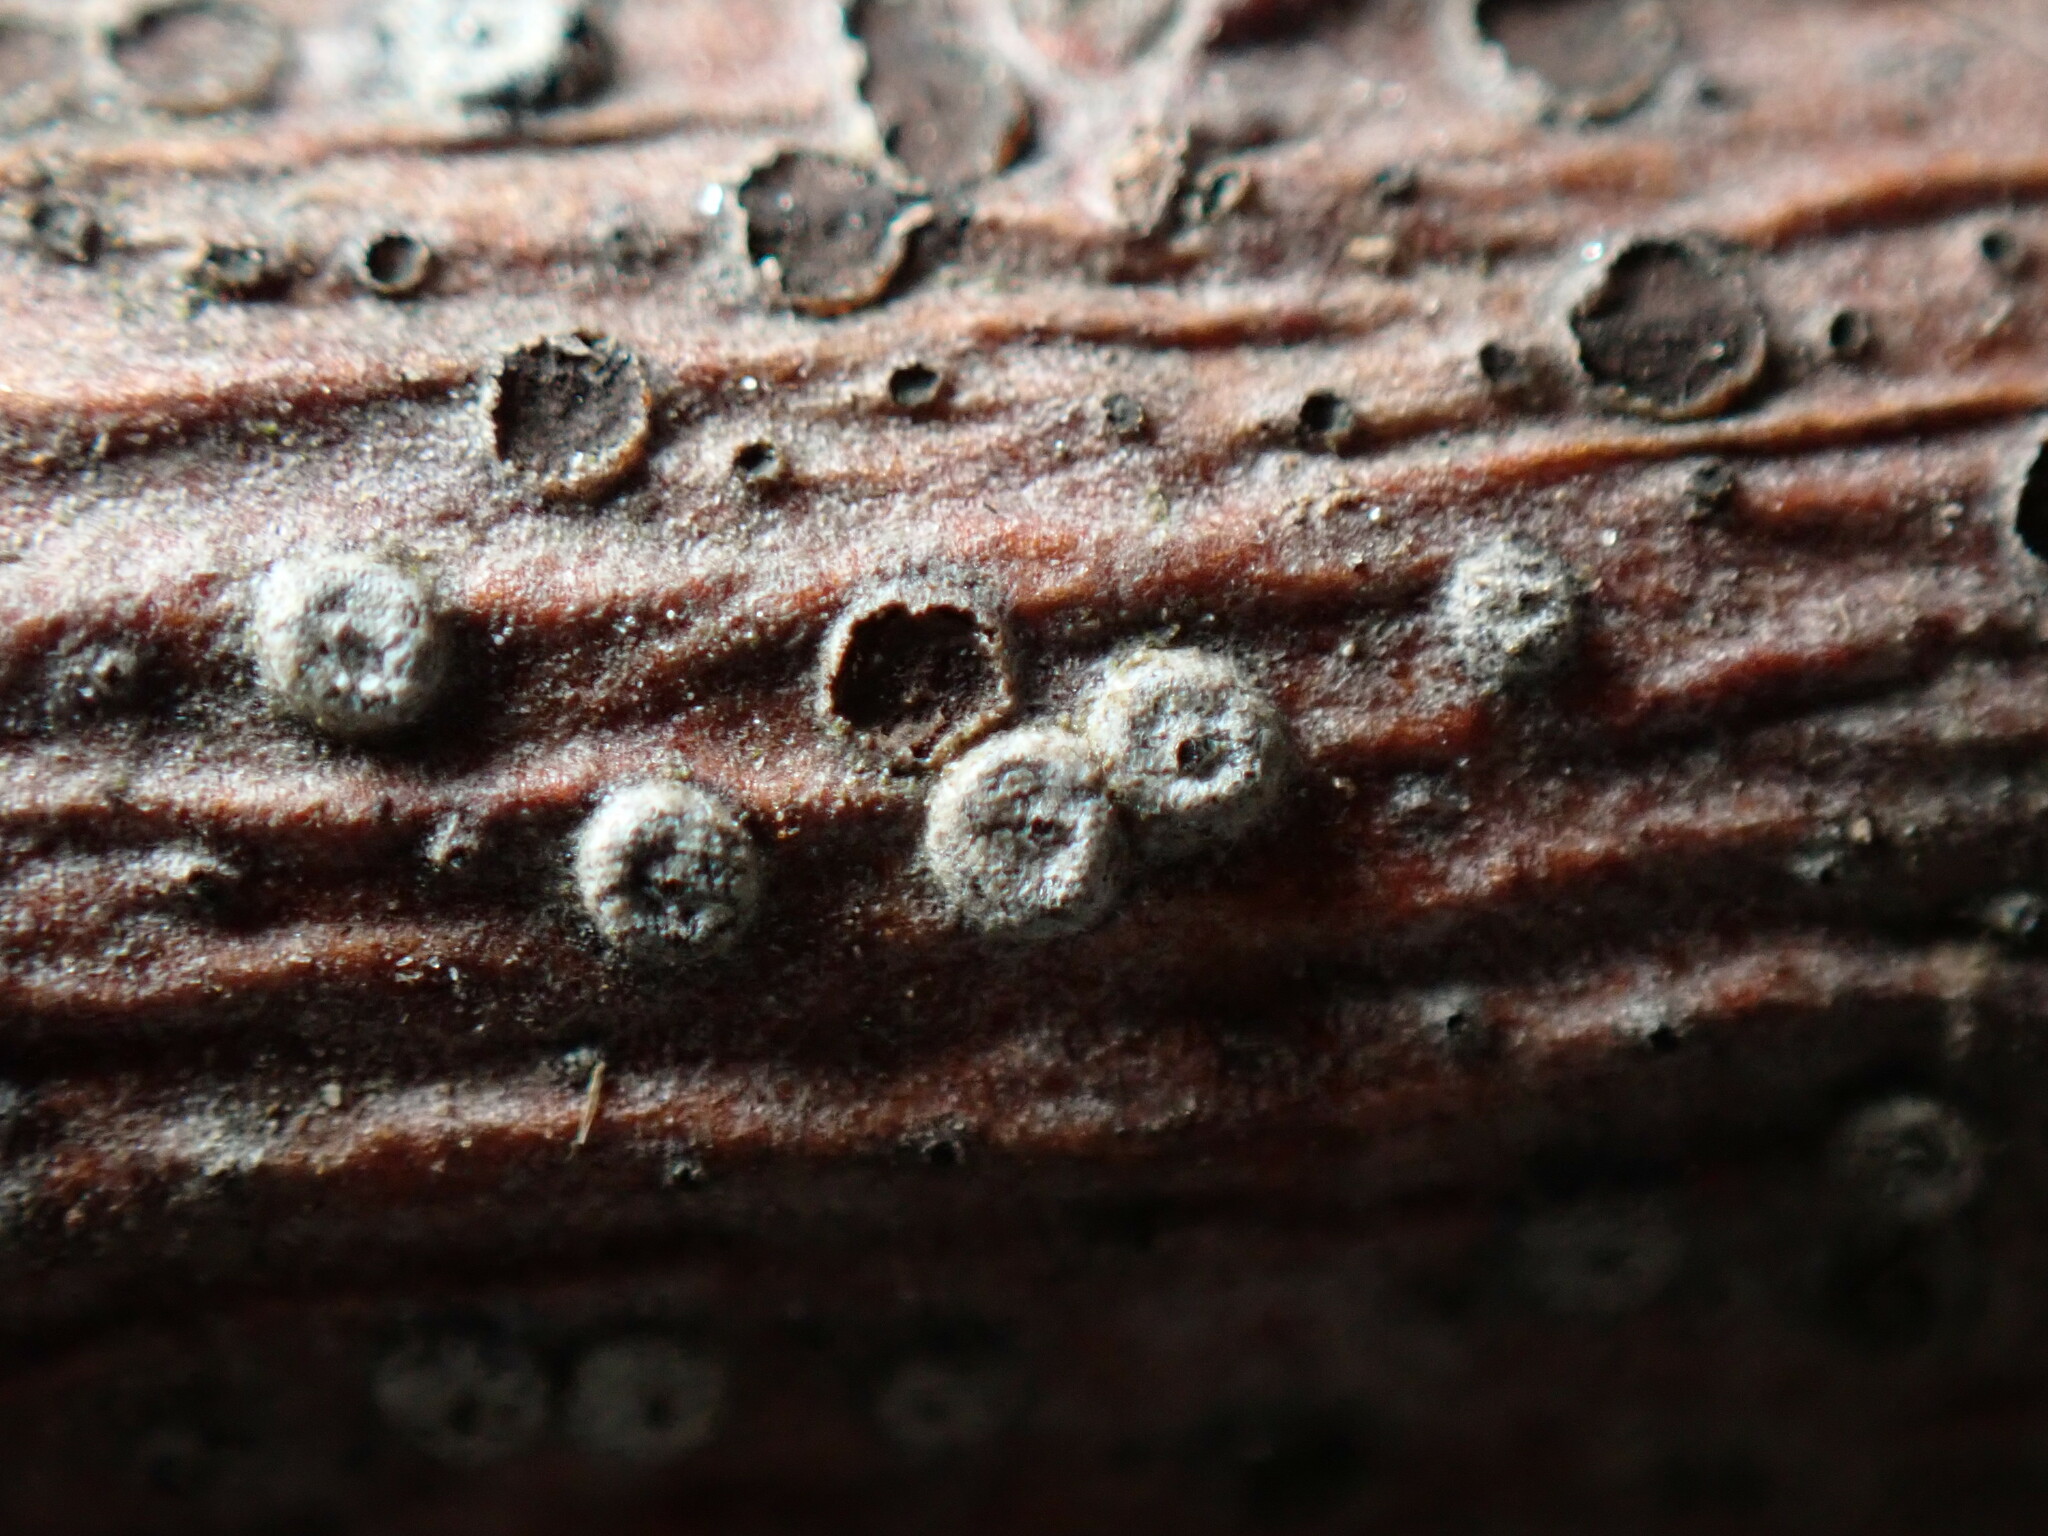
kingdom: Fungi
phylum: Ascomycota
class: Leotiomycetes
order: Rhytismatales
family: Rhytismataceae
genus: Coccomyces
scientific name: Coccomyces strobi
